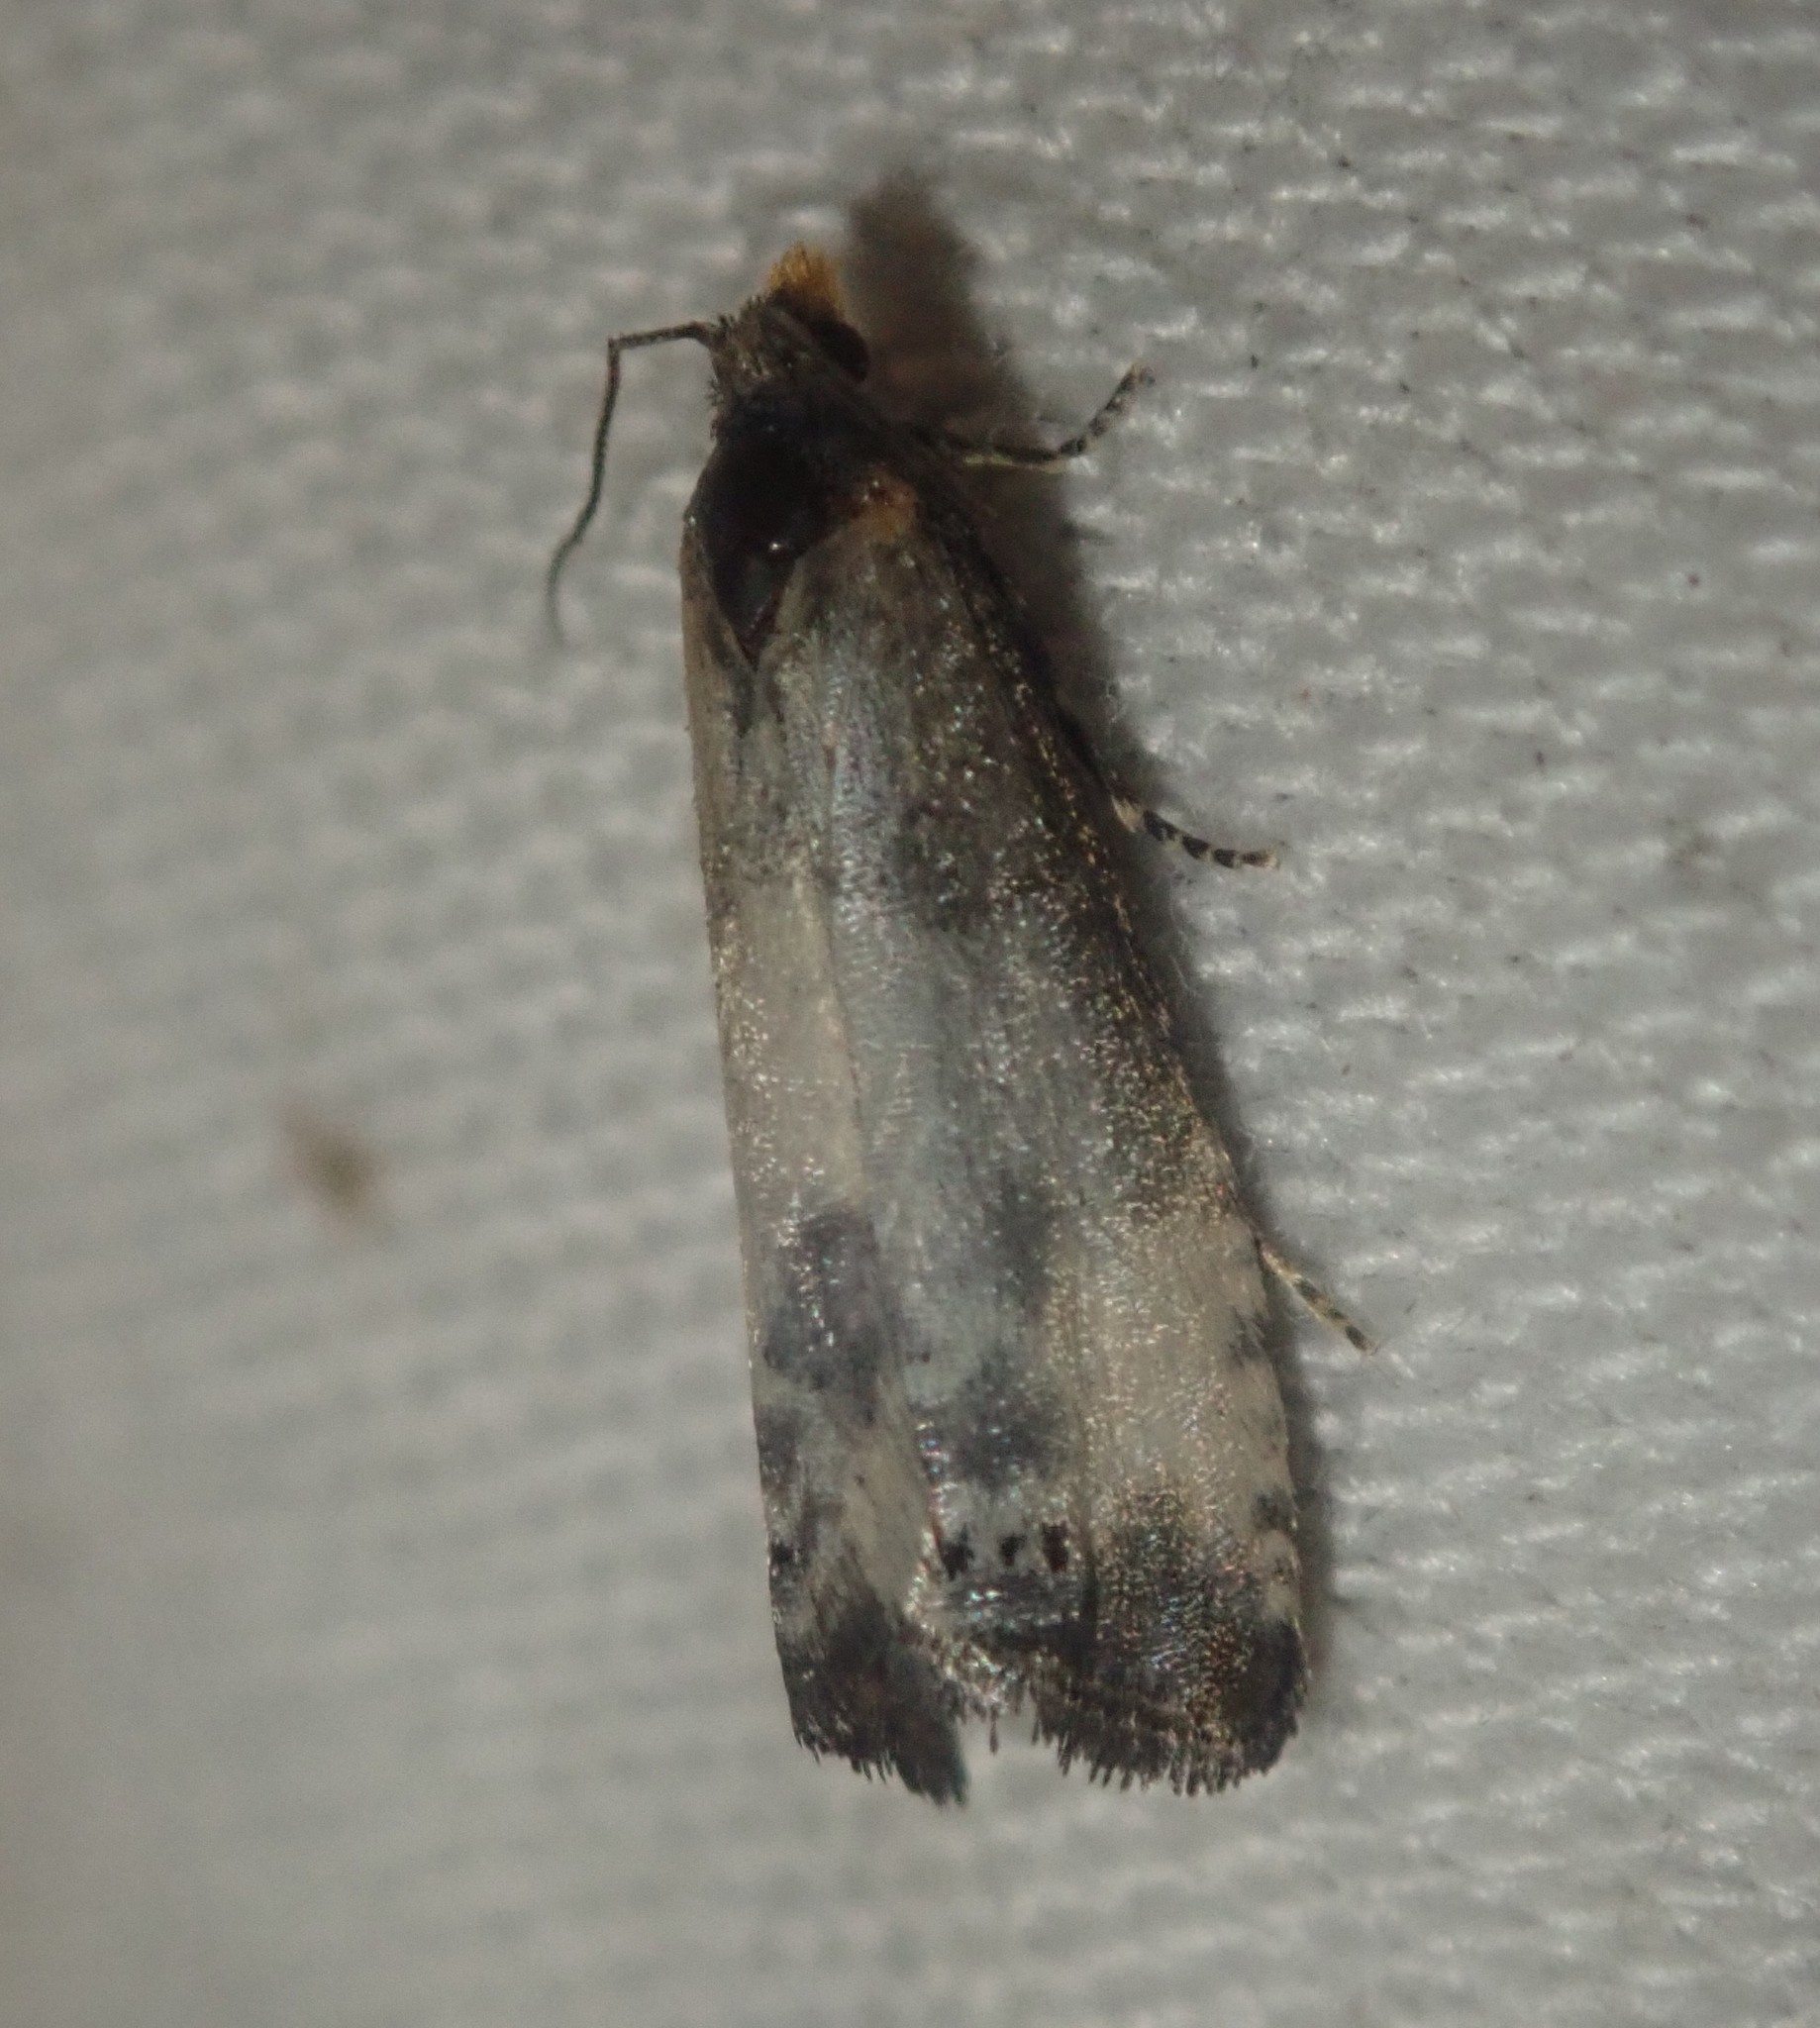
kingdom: Animalia
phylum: Arthropoda
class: Insecta
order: Lepidoptera
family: Tortricidae
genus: Notocelia
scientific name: Notocelia cynosbatella
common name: Yellow-faced bell moth
